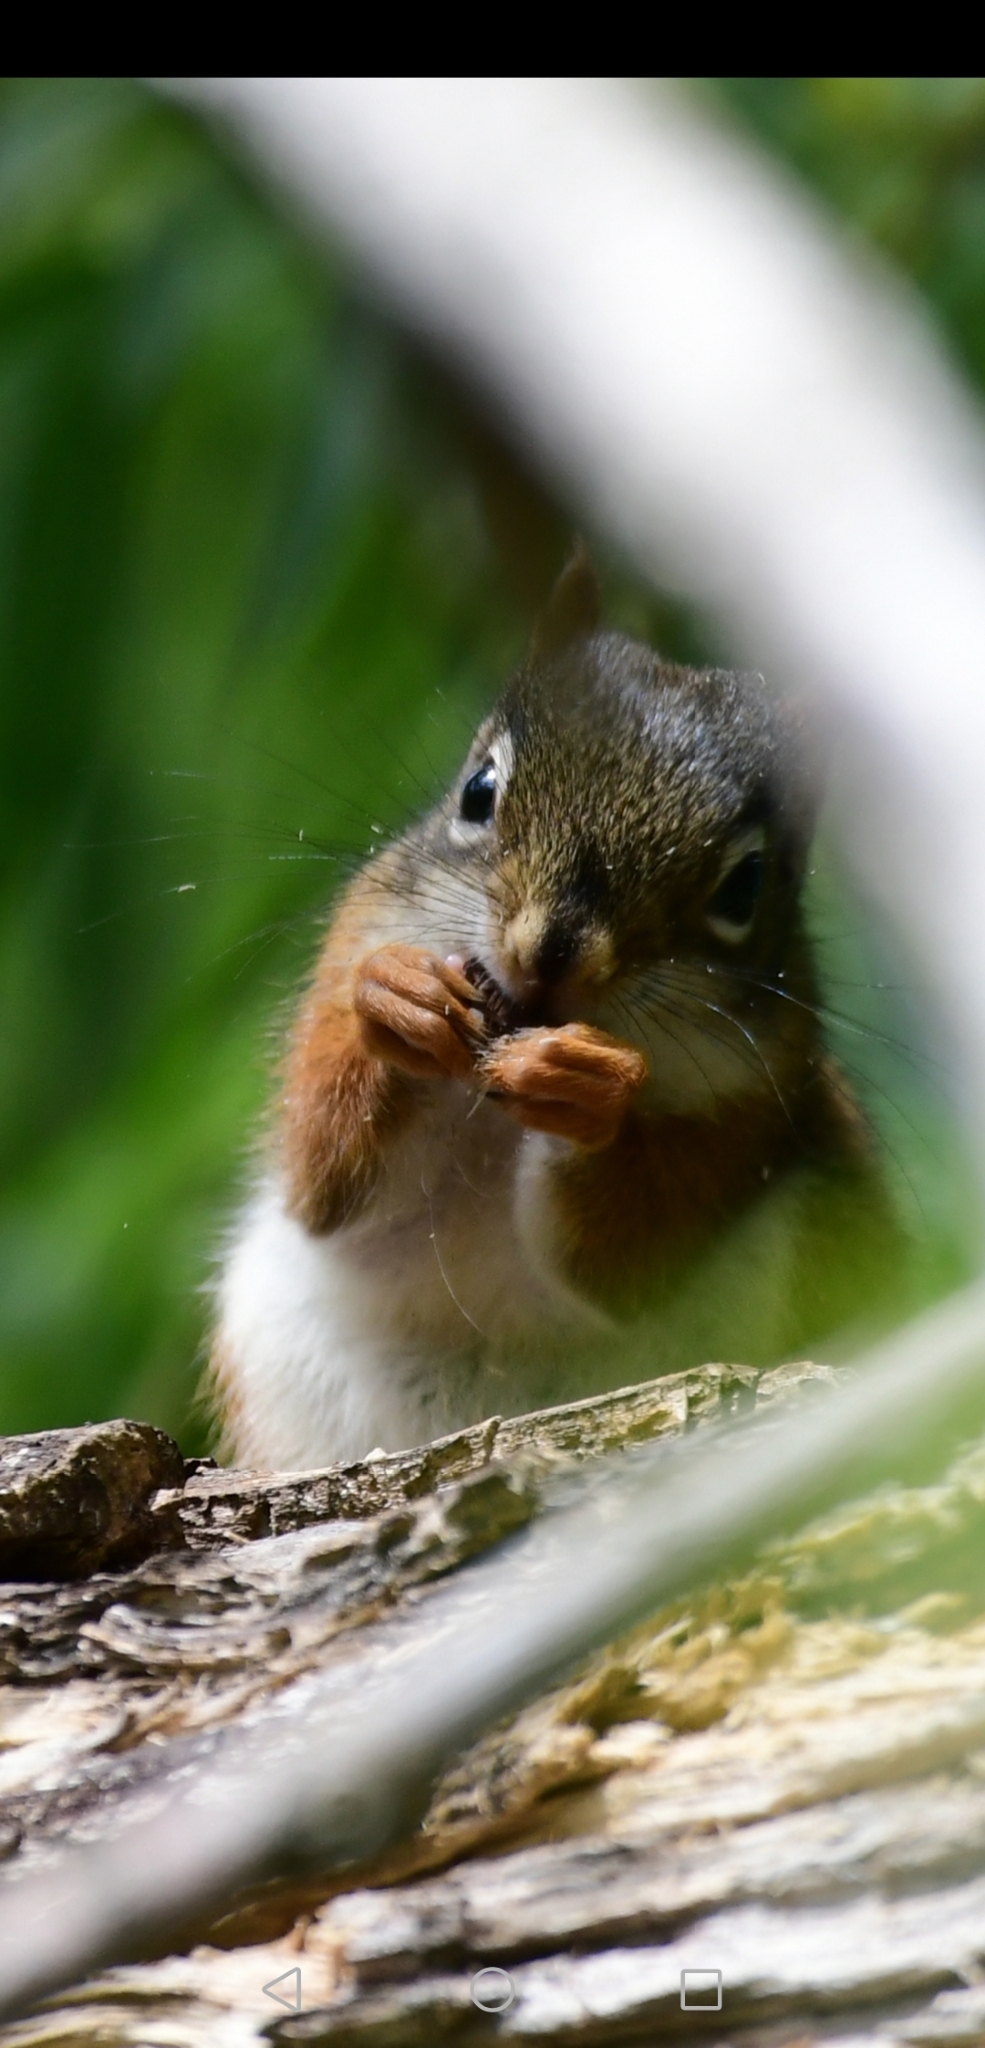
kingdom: Animalia
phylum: Chordata
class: Mammalia
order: Rodentia
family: Sciuridae
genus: Tamiasciurus
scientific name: Tamiasciurus hudsonicus
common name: Red squirrel
